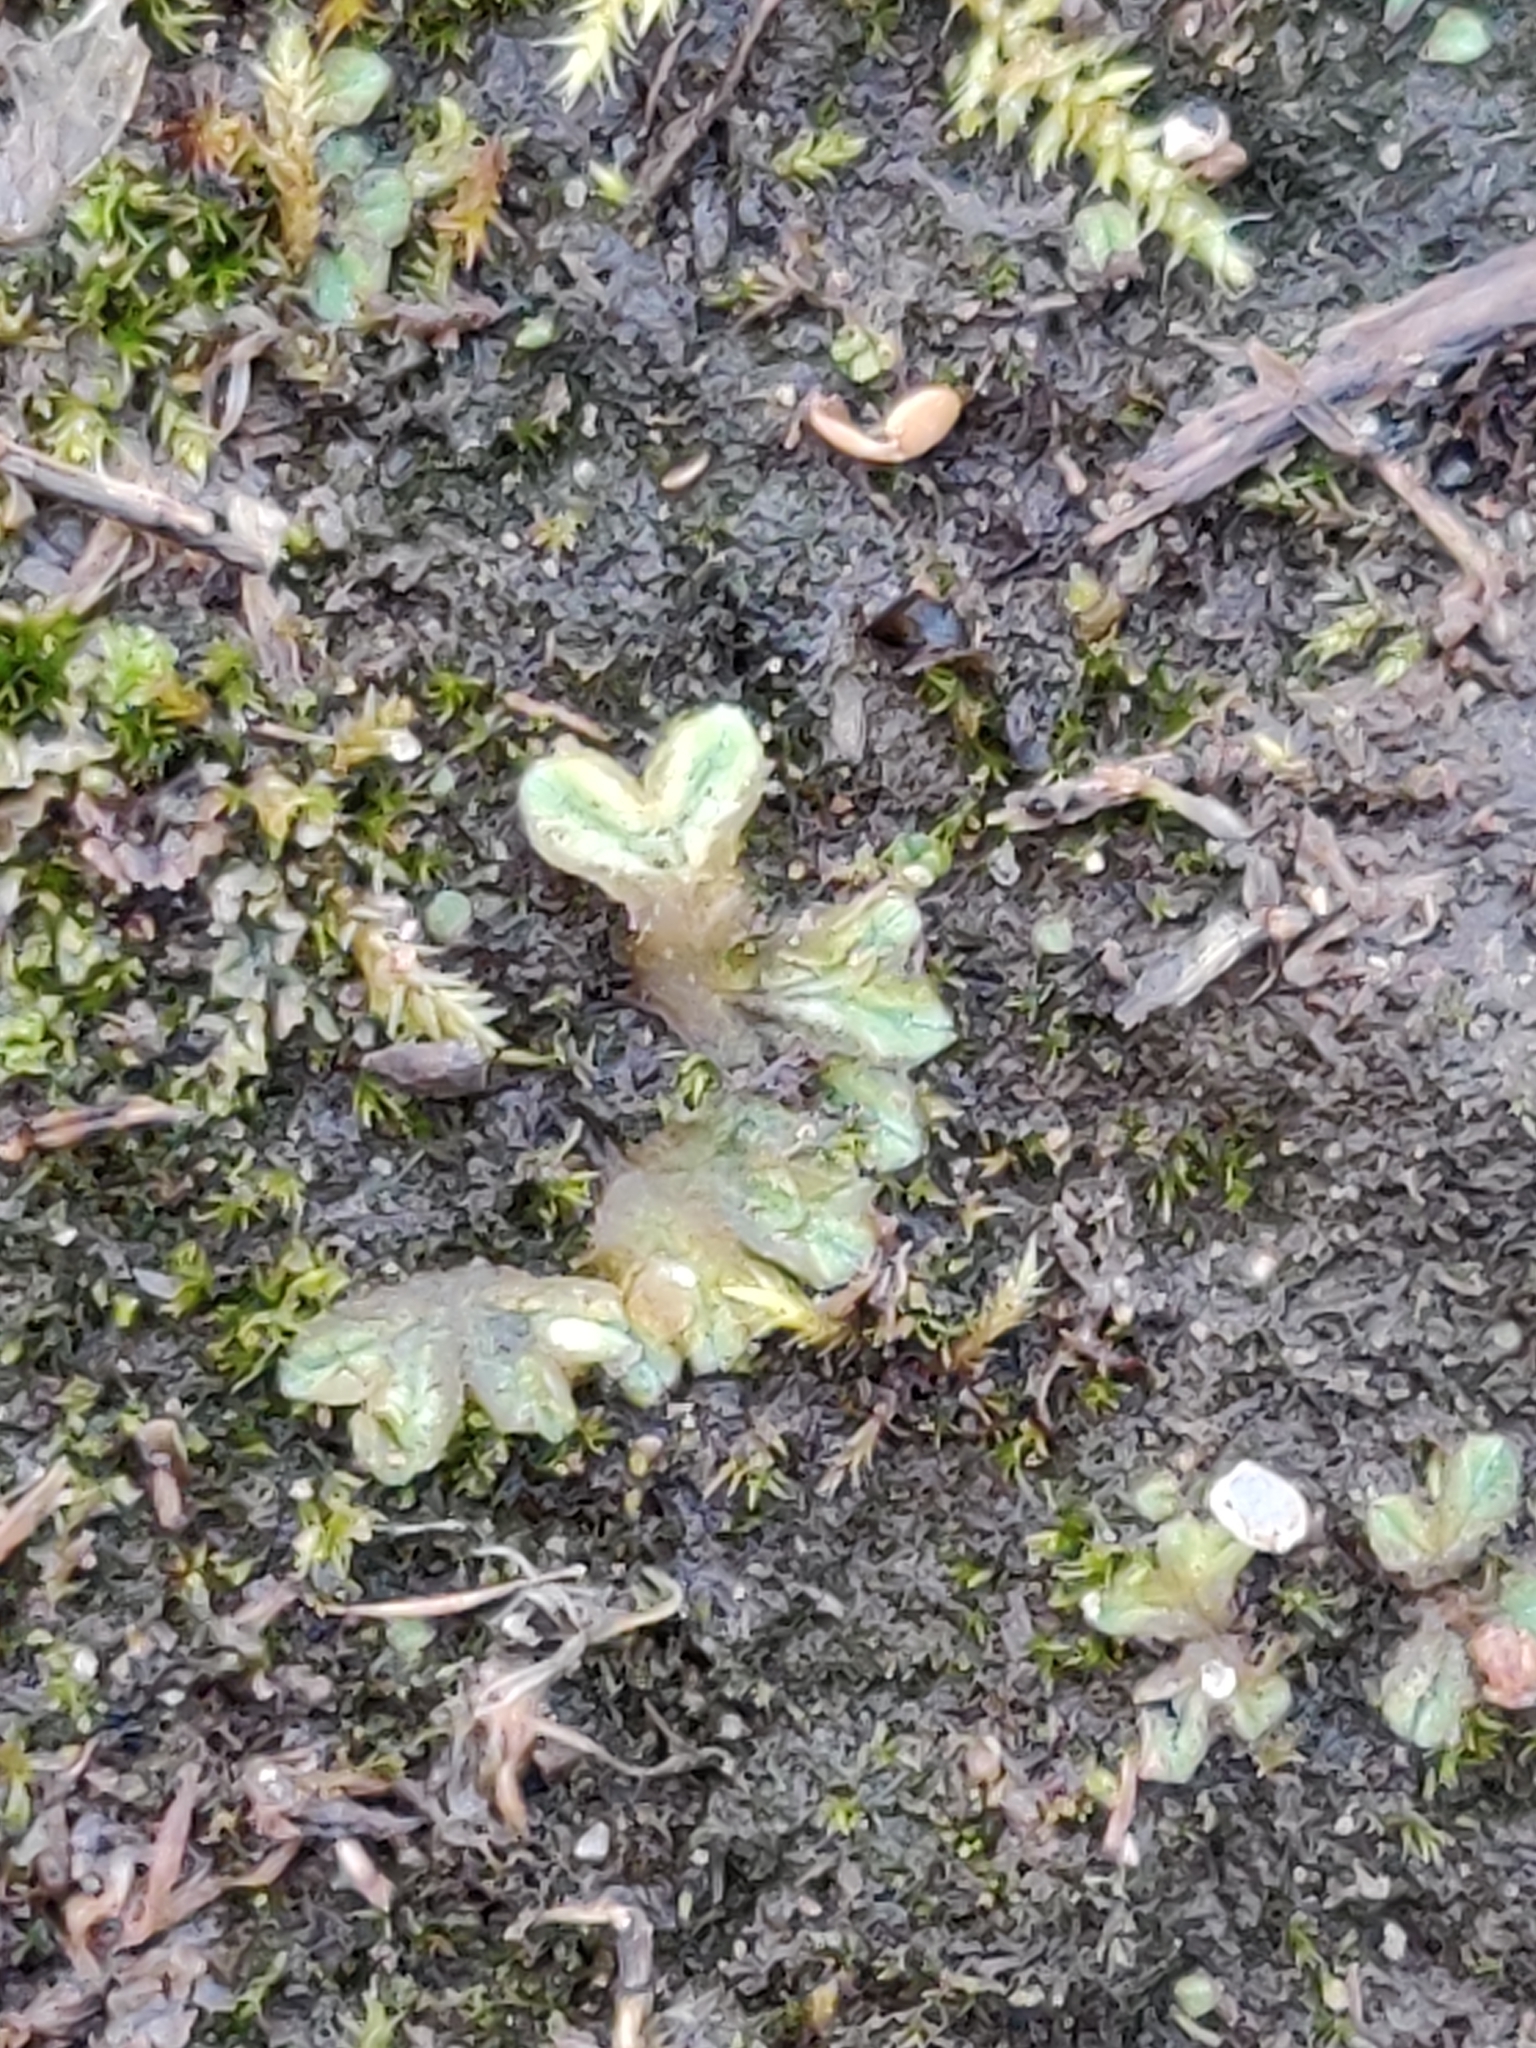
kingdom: Plantae
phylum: Marchantiophyta
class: Marchantiopsida
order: Marchantiales
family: Ricciaceae
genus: Riccia
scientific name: Riccia sorocarpa
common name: Common crystalwort
